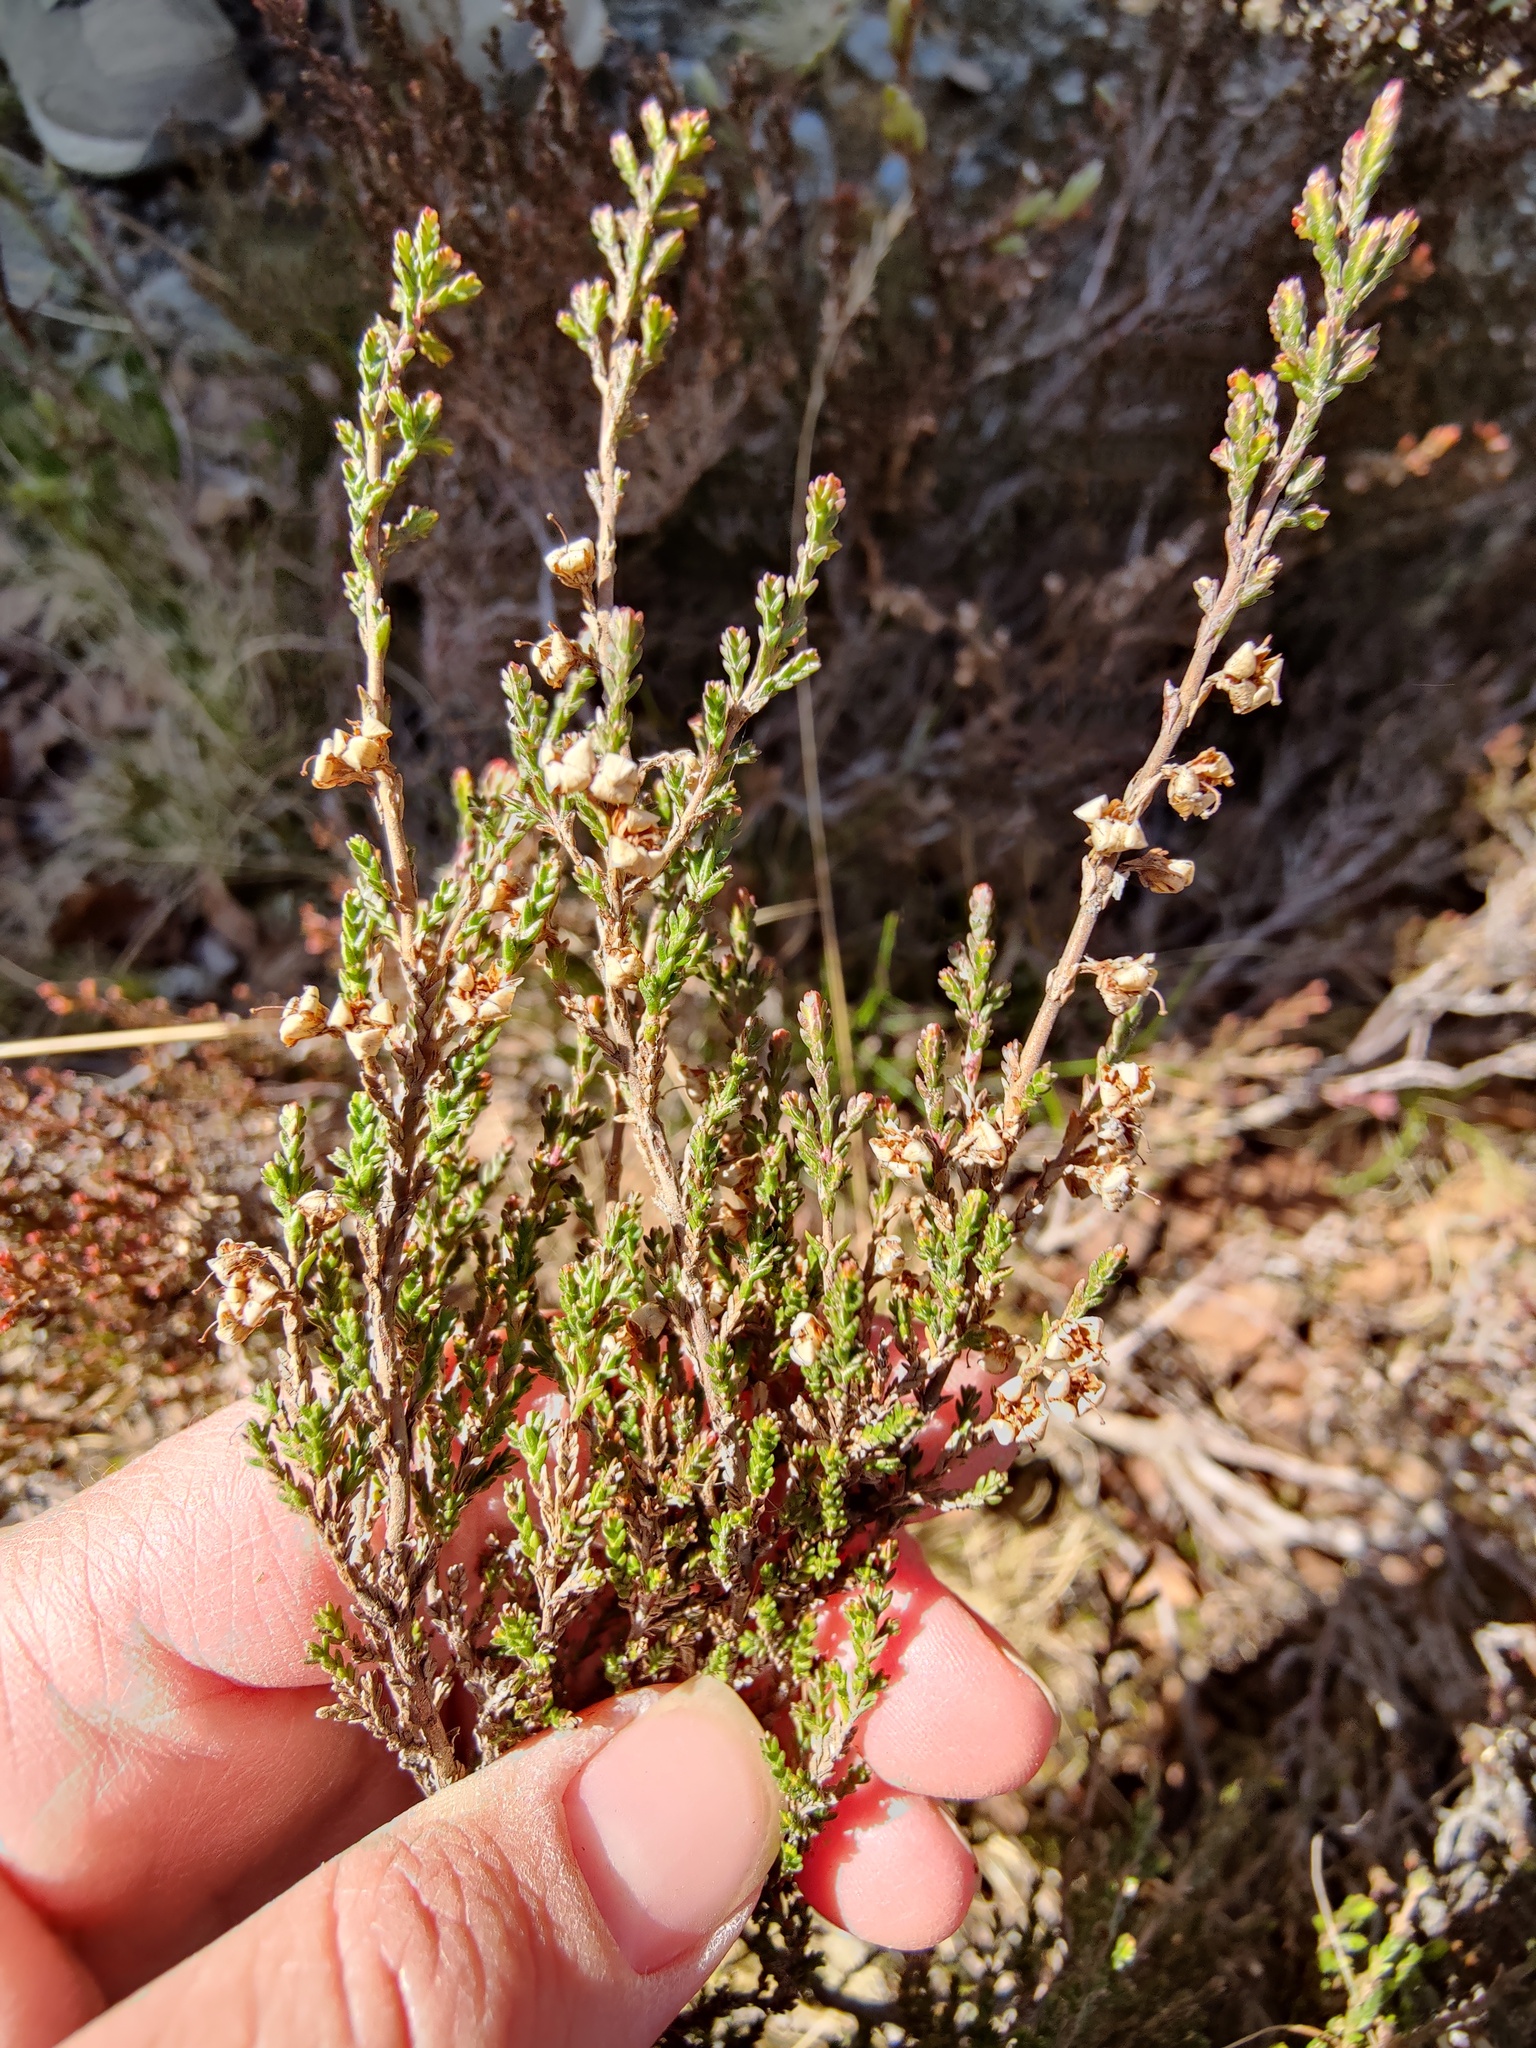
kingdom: Plantae
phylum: Tracheophyta
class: Magnoliopsida
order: Ericales
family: Ericaceae
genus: Calluna
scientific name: Calluna vulgaris
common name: Heather
